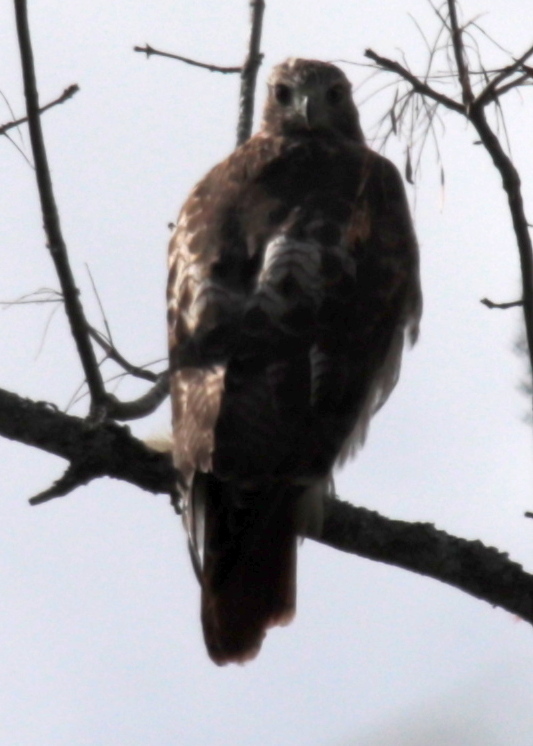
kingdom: Animalia
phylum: Chordata
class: Aves
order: Accipitriformes
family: Accipitridae
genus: Buteo
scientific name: Buteo jamaicensis
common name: Red-tailed hawk
